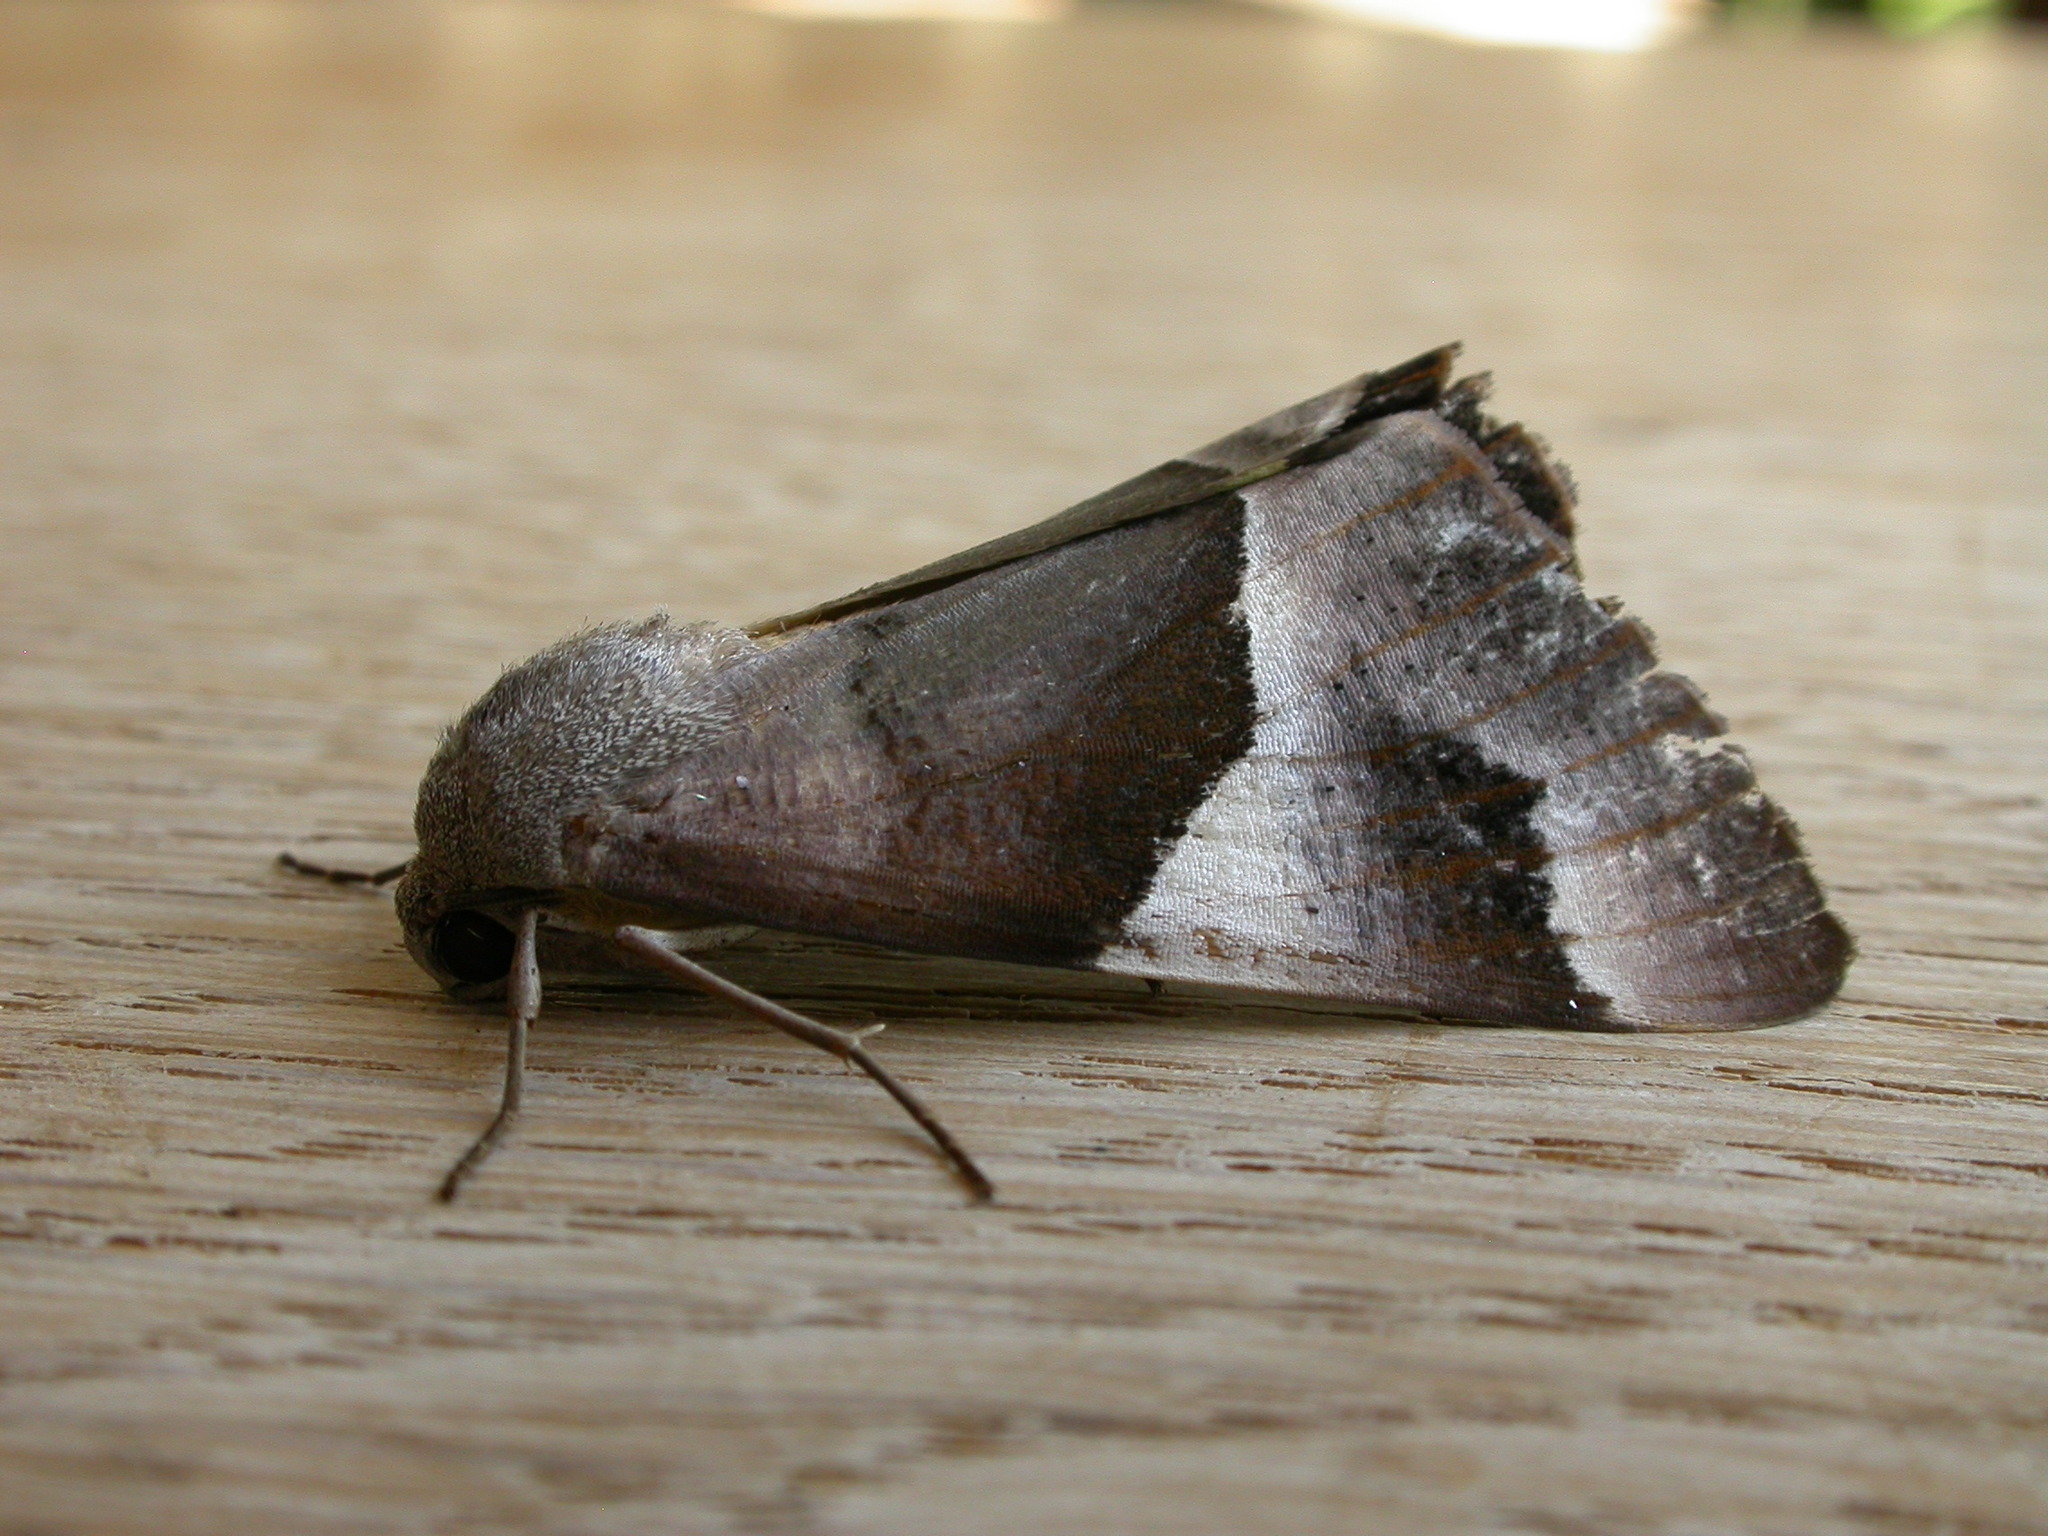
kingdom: Animalia
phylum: Arthropoda
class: Insecta
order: Lepidoptera
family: Geometridae
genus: Niceteria
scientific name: Niceteria macrocosma
